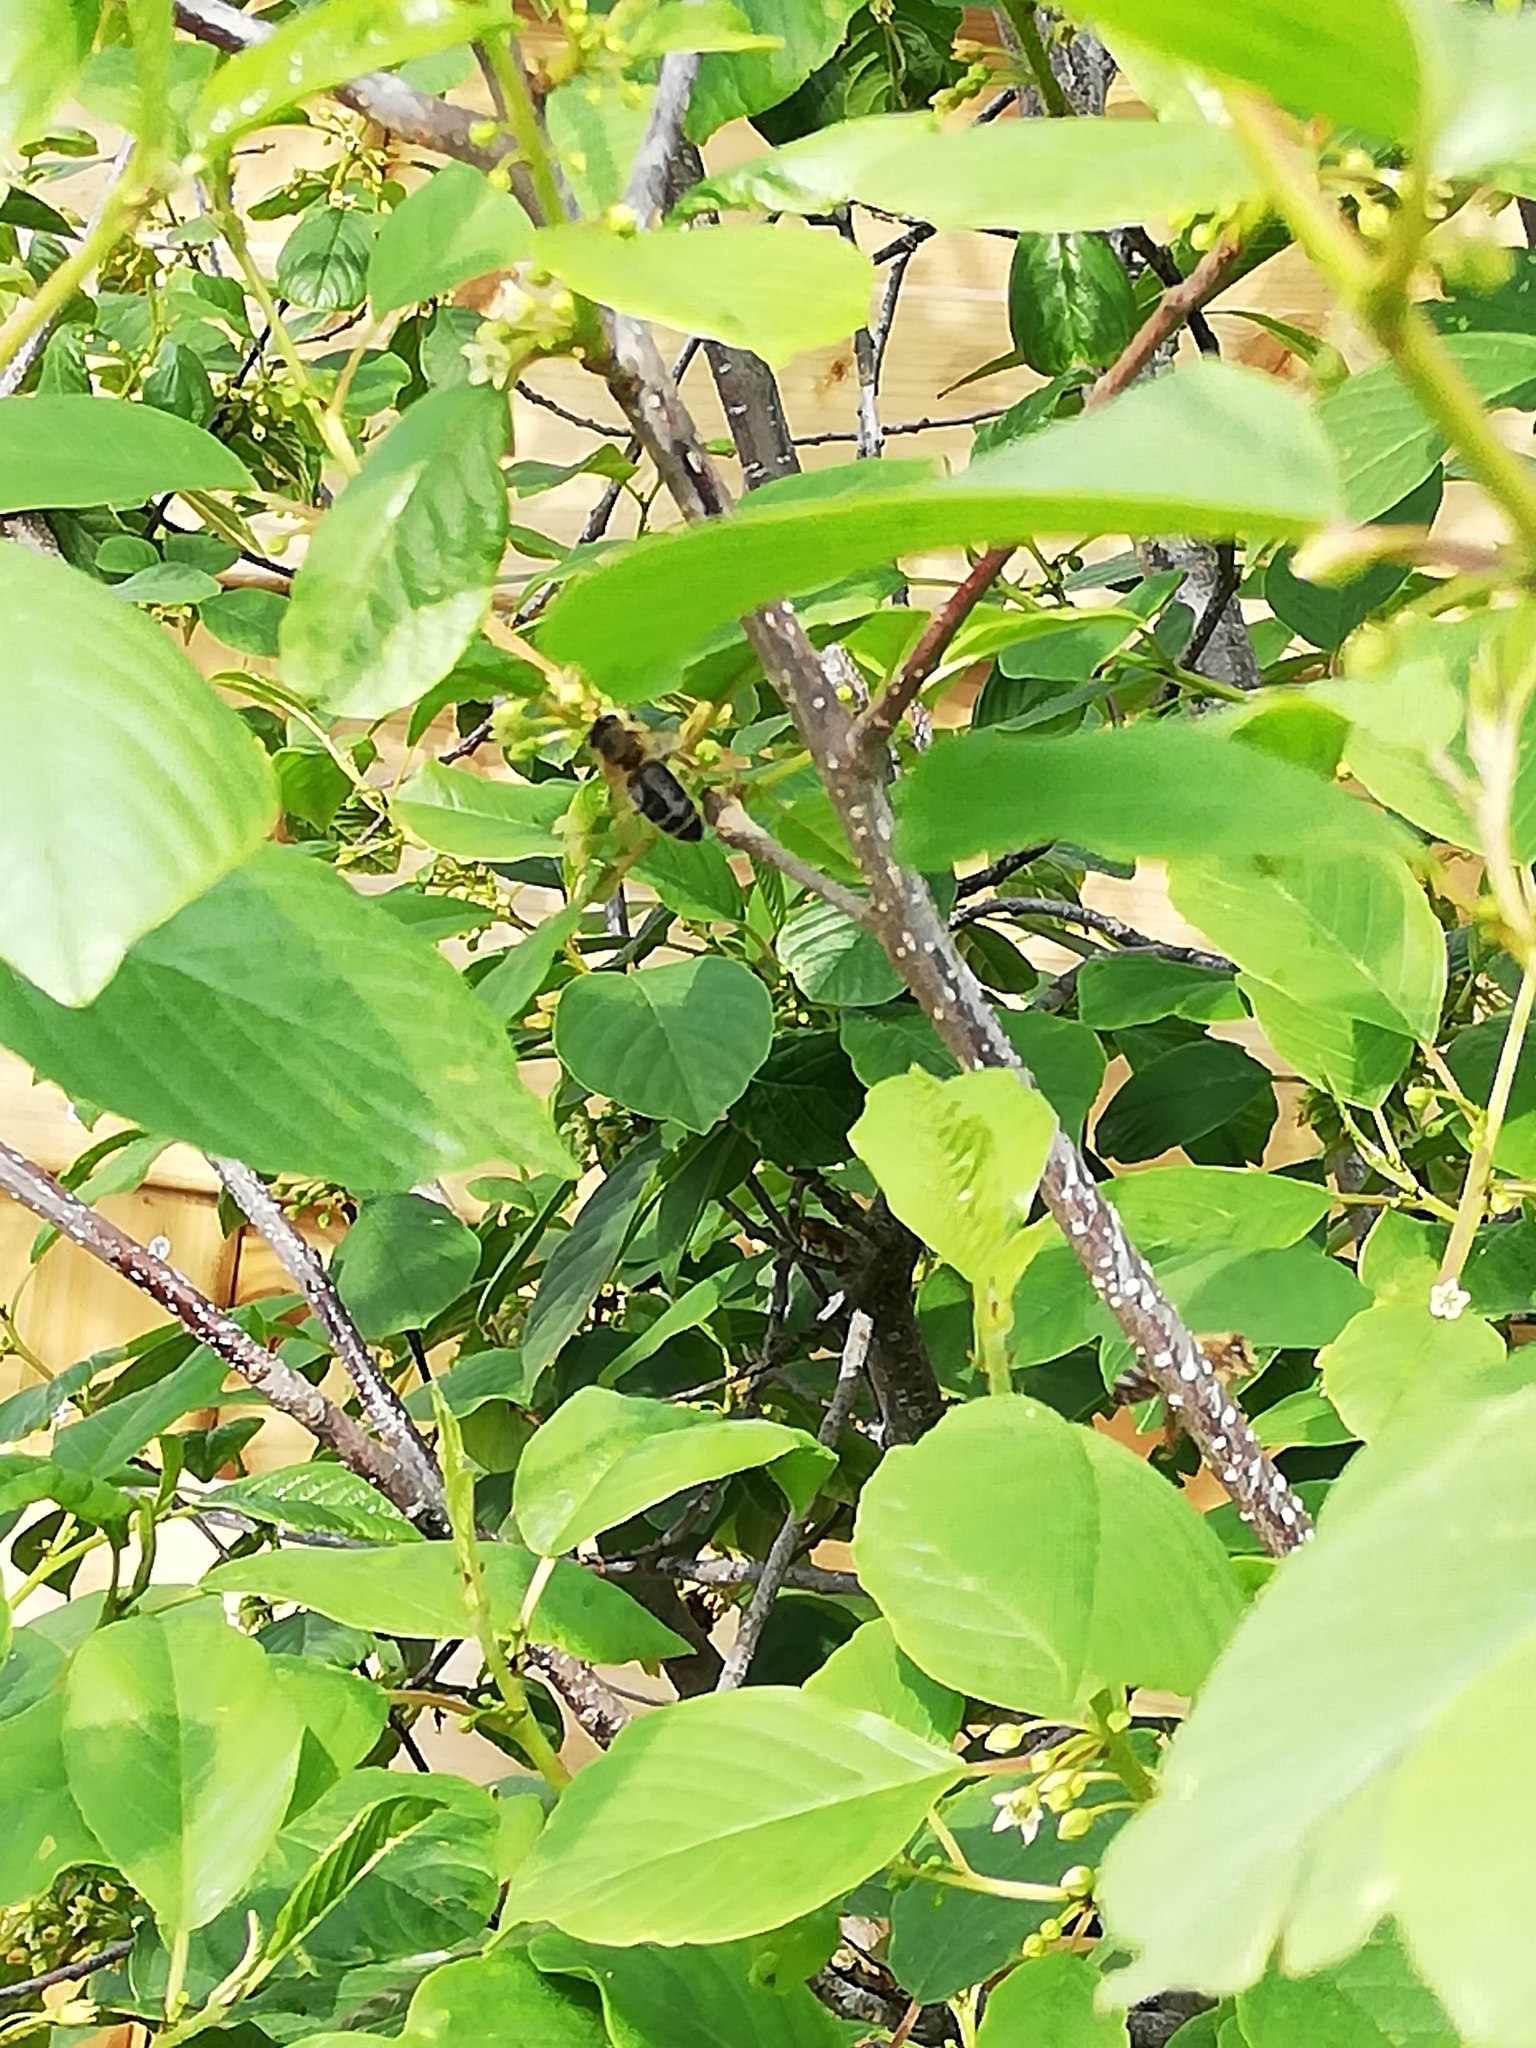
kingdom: Animalia
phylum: Arthropoda
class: Insecta
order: Hymenoptera
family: Apidae
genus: Apis
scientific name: Apis mellifera
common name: Honey bee
